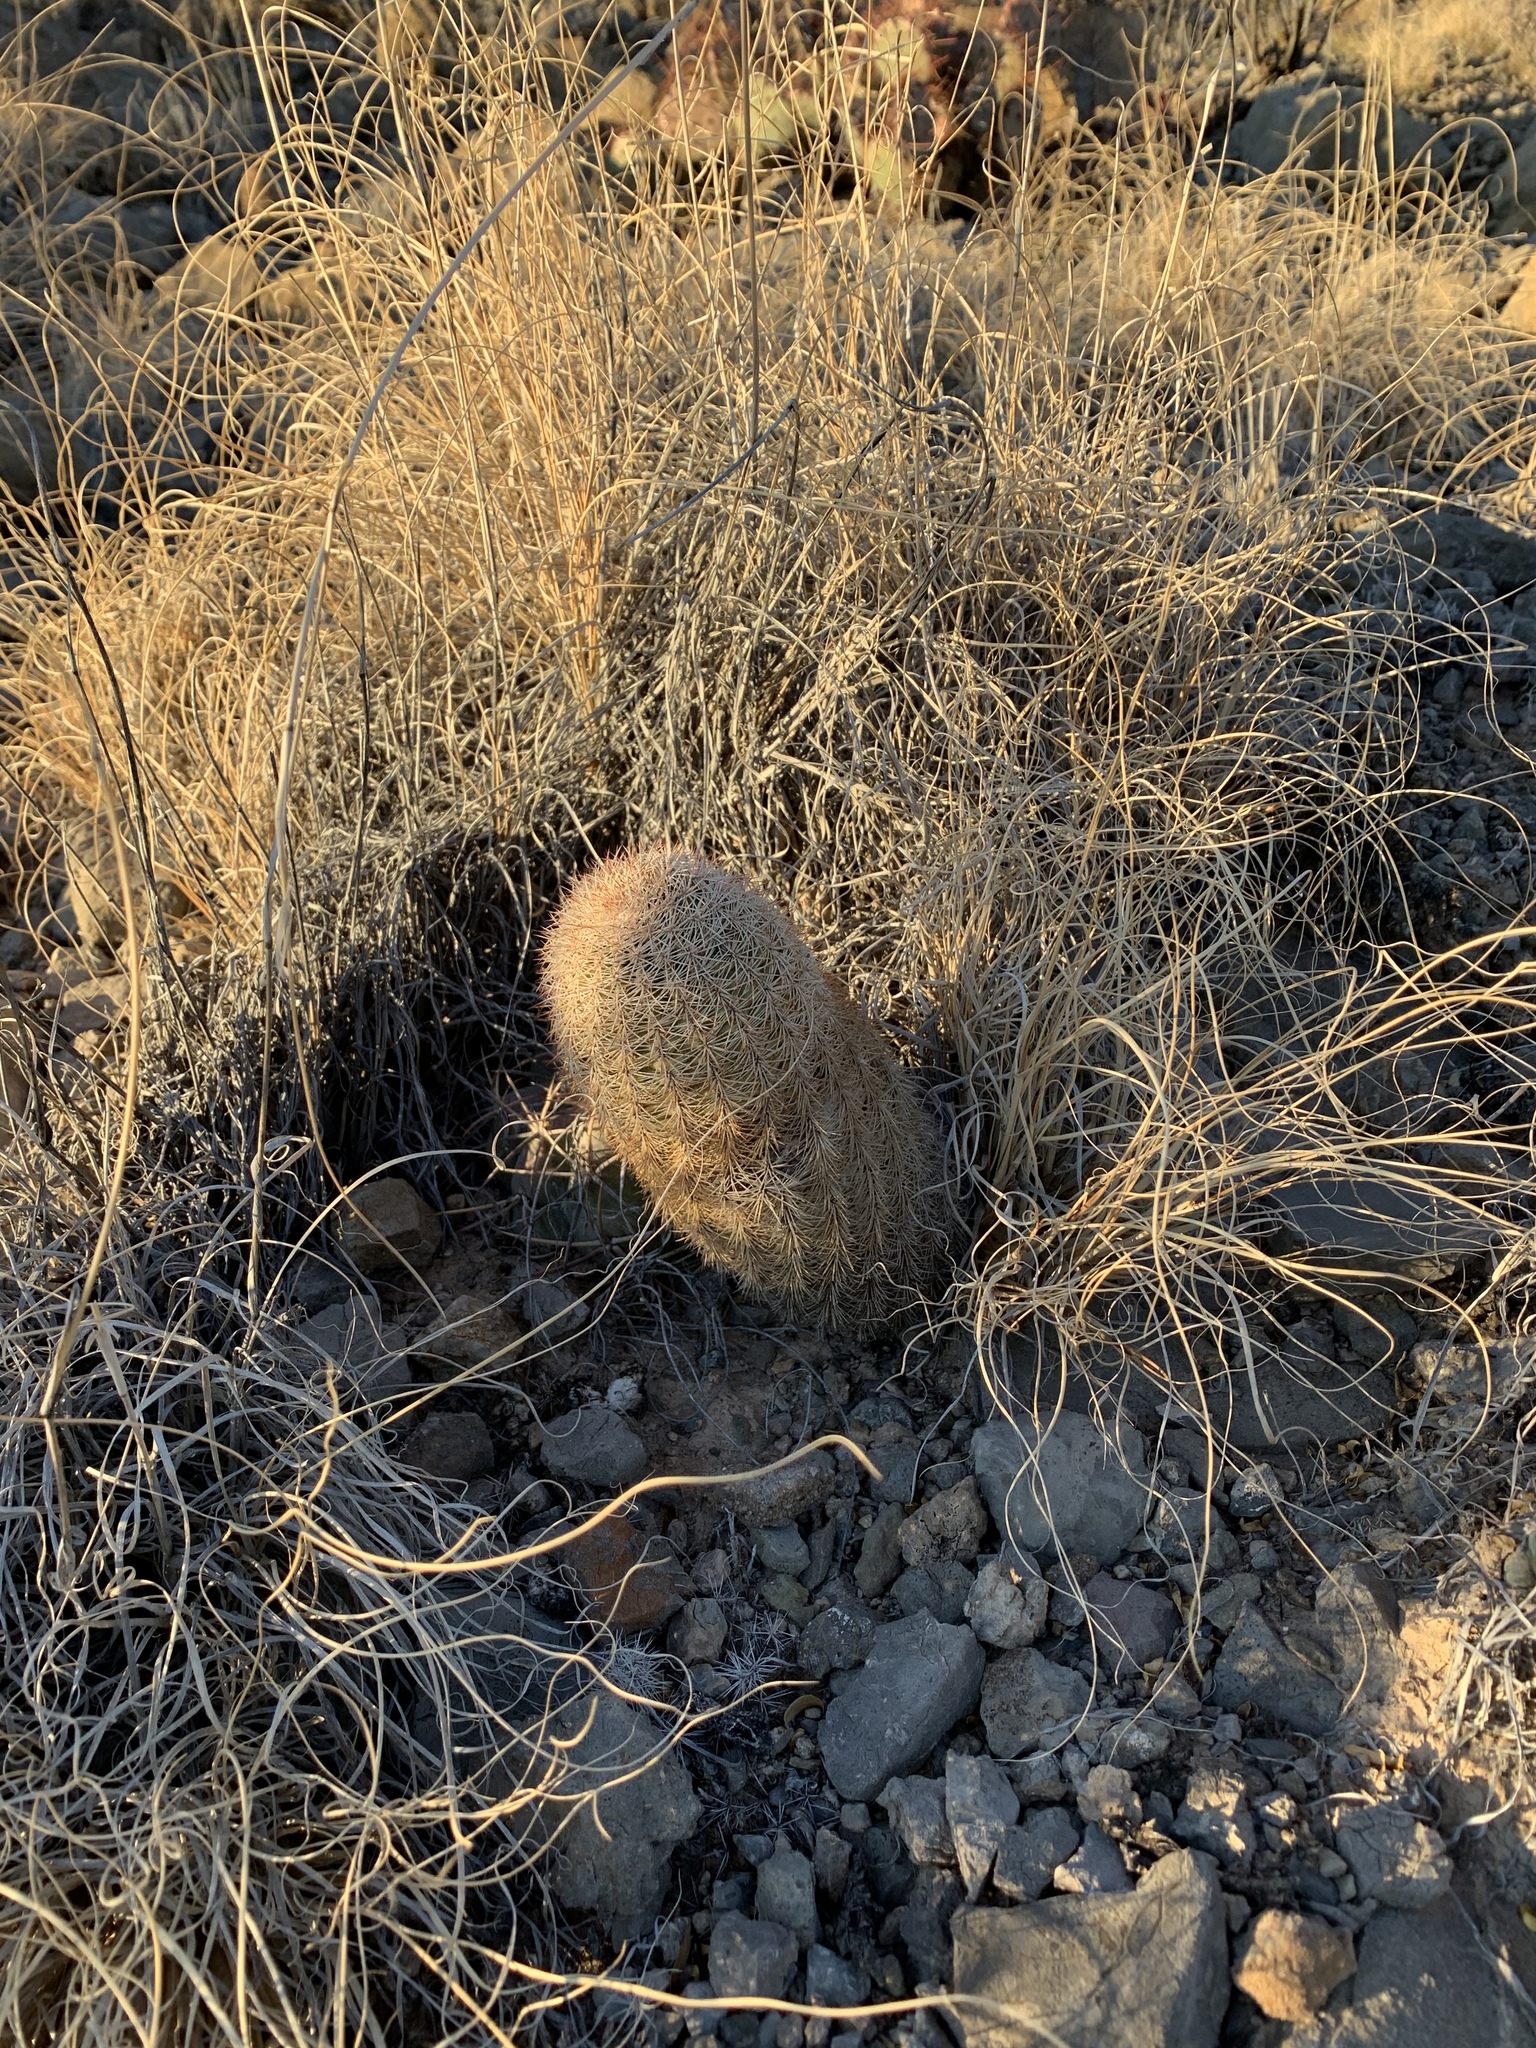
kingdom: Plantae
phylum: Tracheophyta
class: Magnoliopsida
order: Caryophyllales
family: Cactaceae
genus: Echinocereus
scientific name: Echinocereus dasyacanthus
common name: Spiny hedgehog cactus
